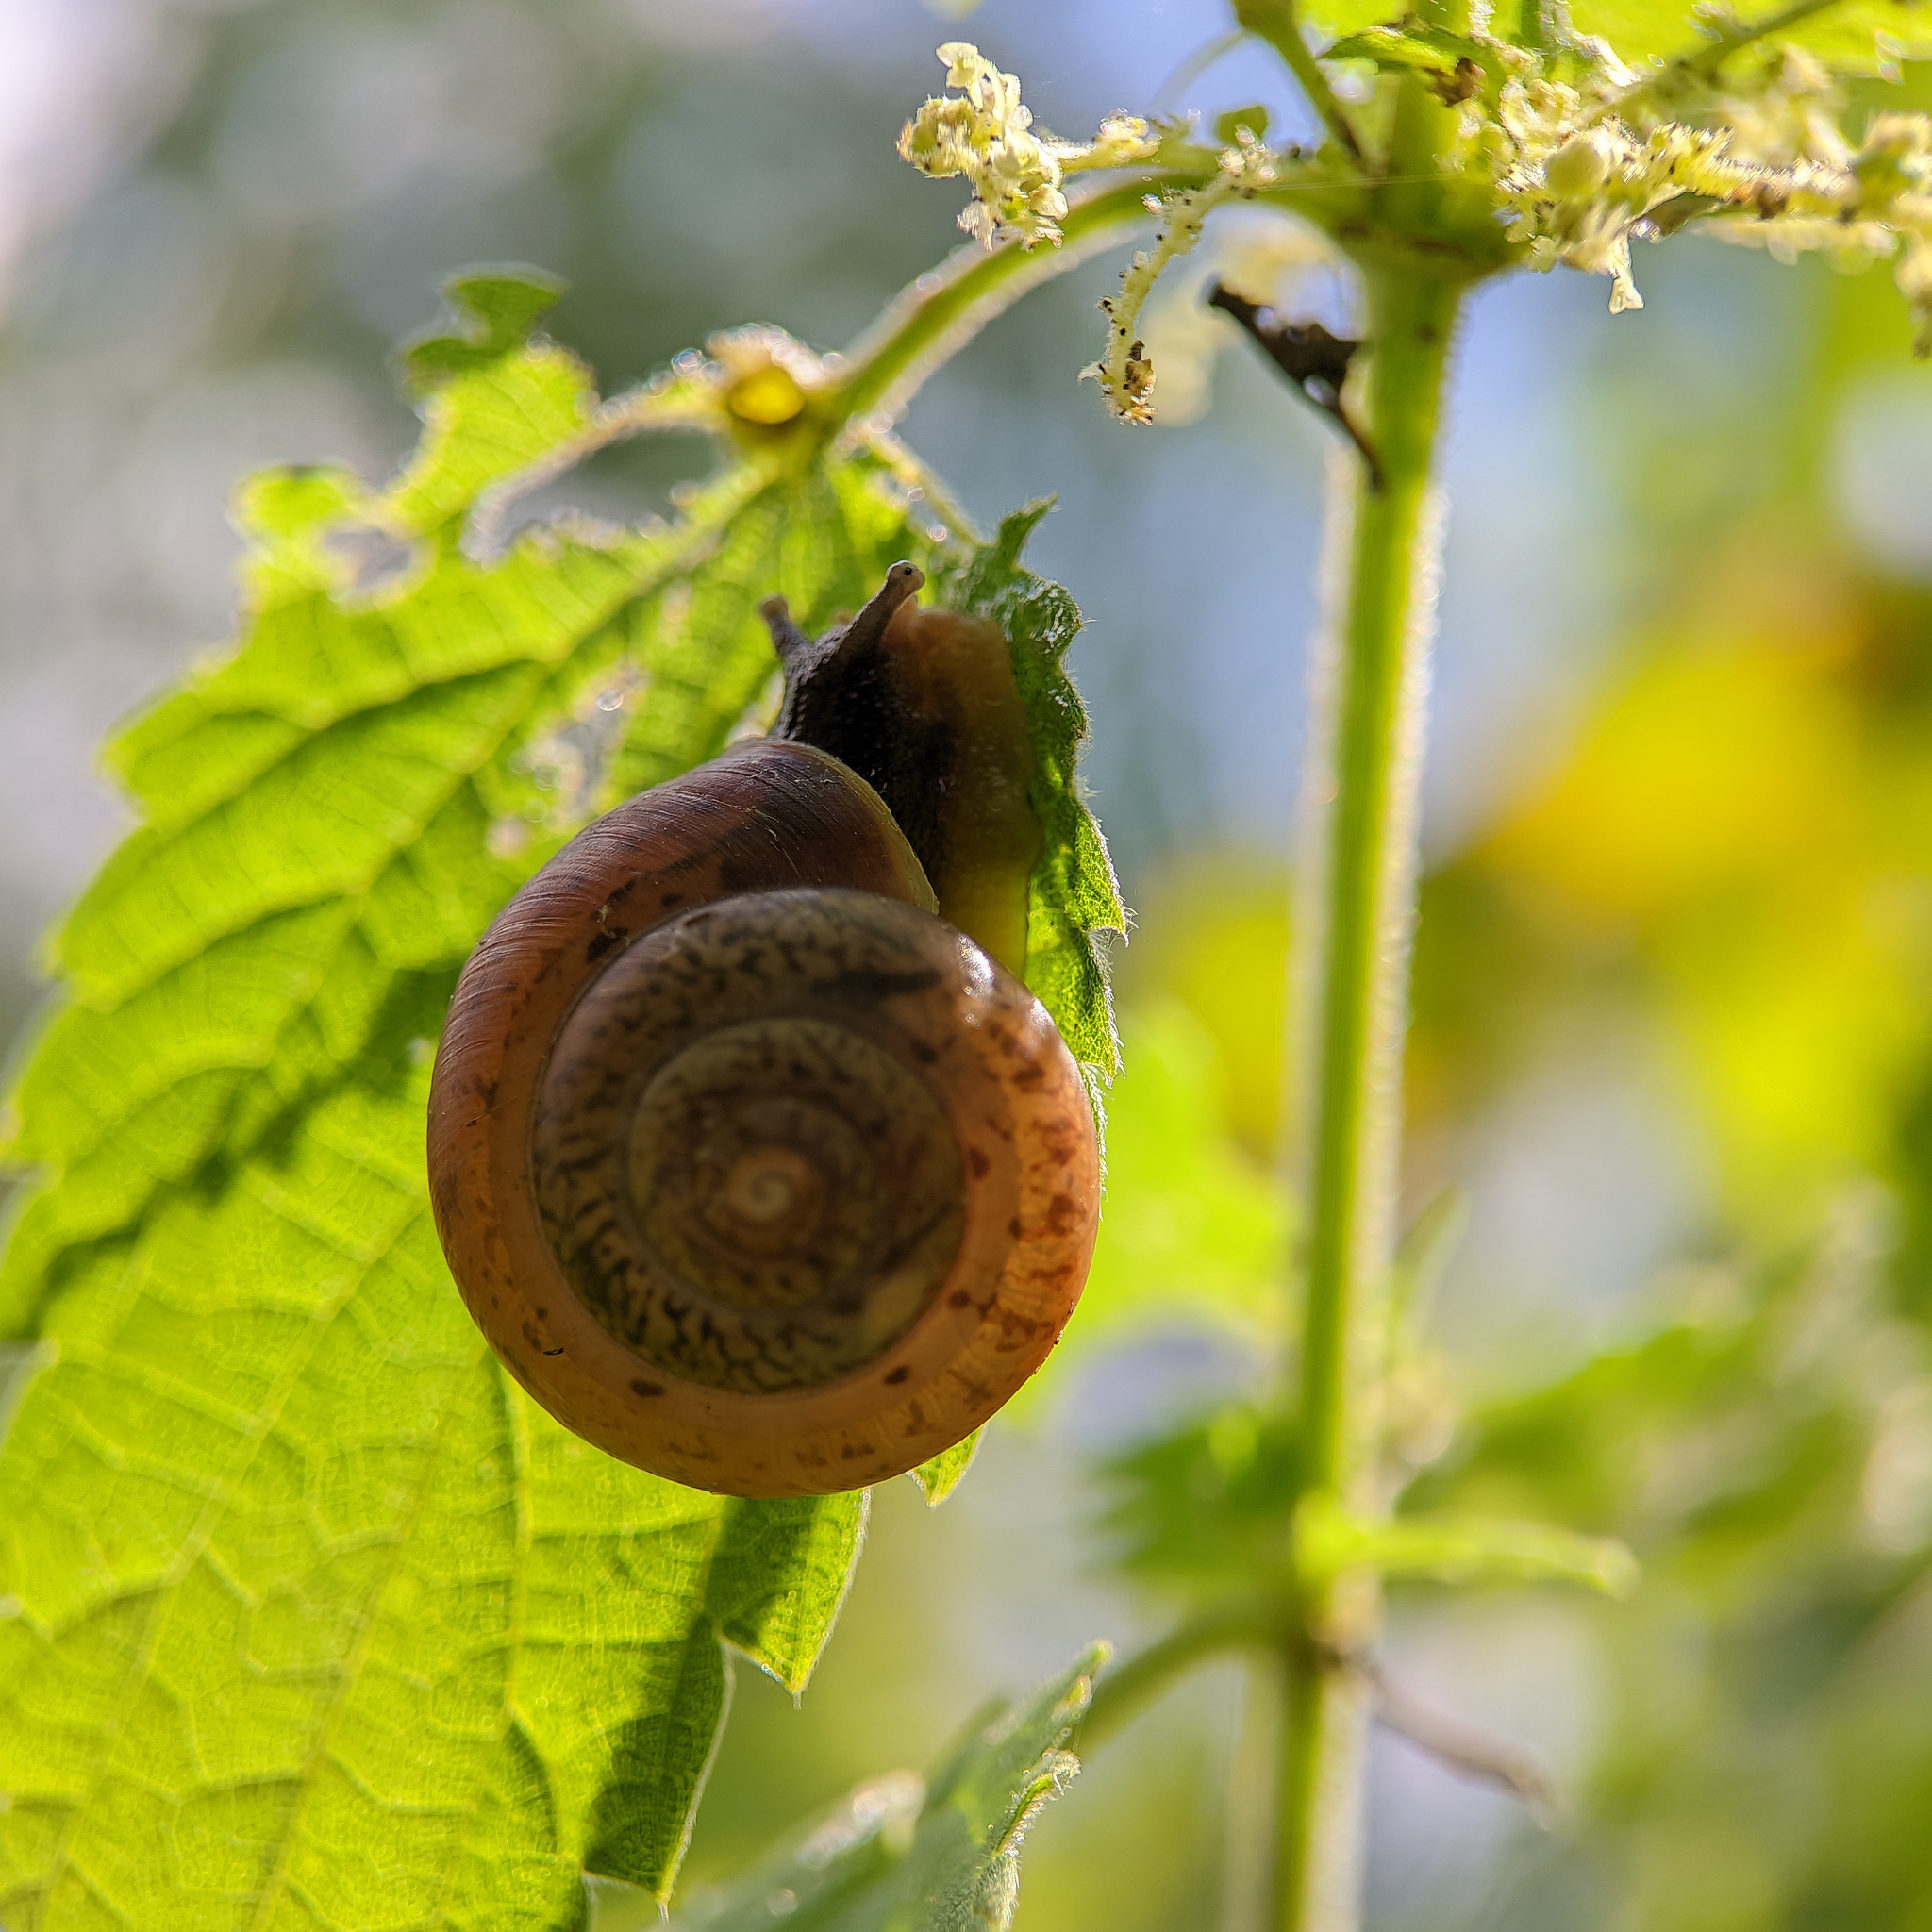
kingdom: Animalia
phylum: Mollusca
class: Gastropoda
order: Stylommatophora
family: Camaenidae
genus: Fruticicola
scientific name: Fruticicola fruticum
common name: Bush snail
